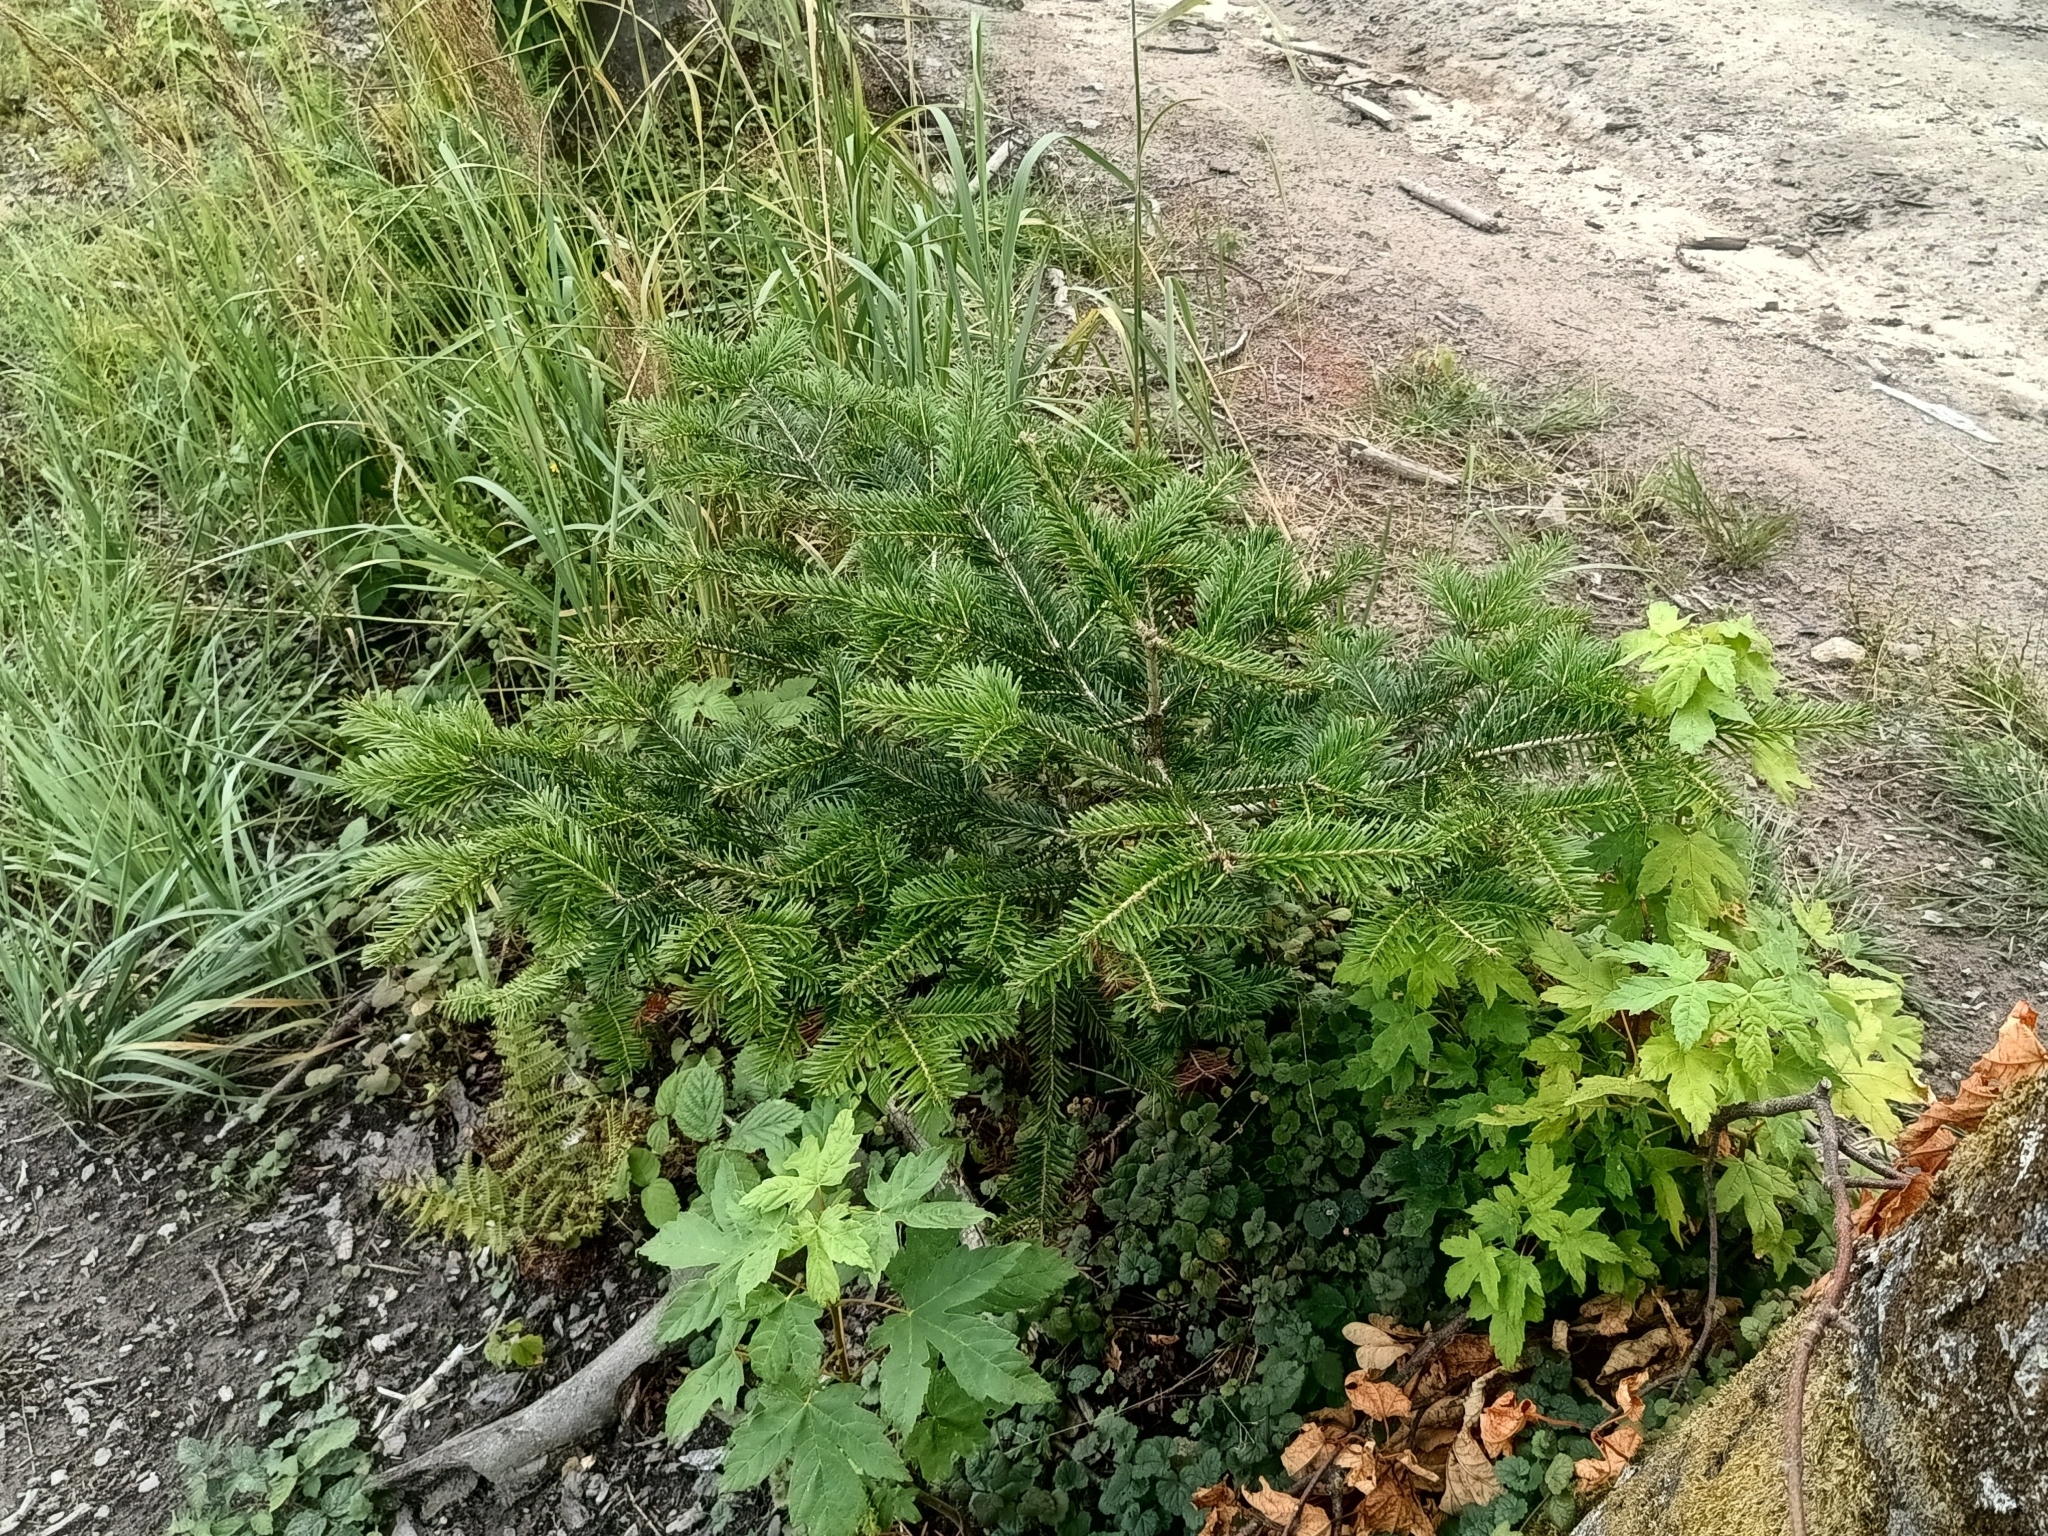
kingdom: Plantae
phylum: Tracheophyta
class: Pinopsida
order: Pinales
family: Pinaceae
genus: Abies
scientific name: Abies alba
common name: Silver fir
